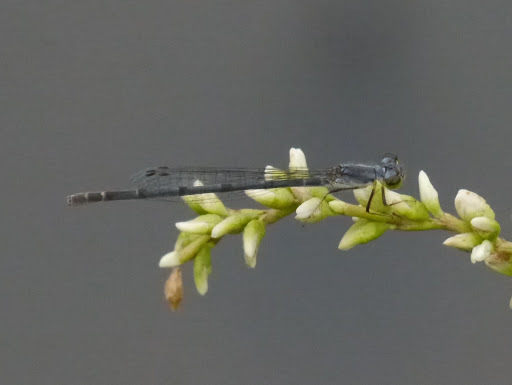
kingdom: Animalia
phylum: Arthropoda
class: Insecta
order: Odonata
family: Coenagrionidae
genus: Ischnura
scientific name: Ischnura posita
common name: Fragile forktail
